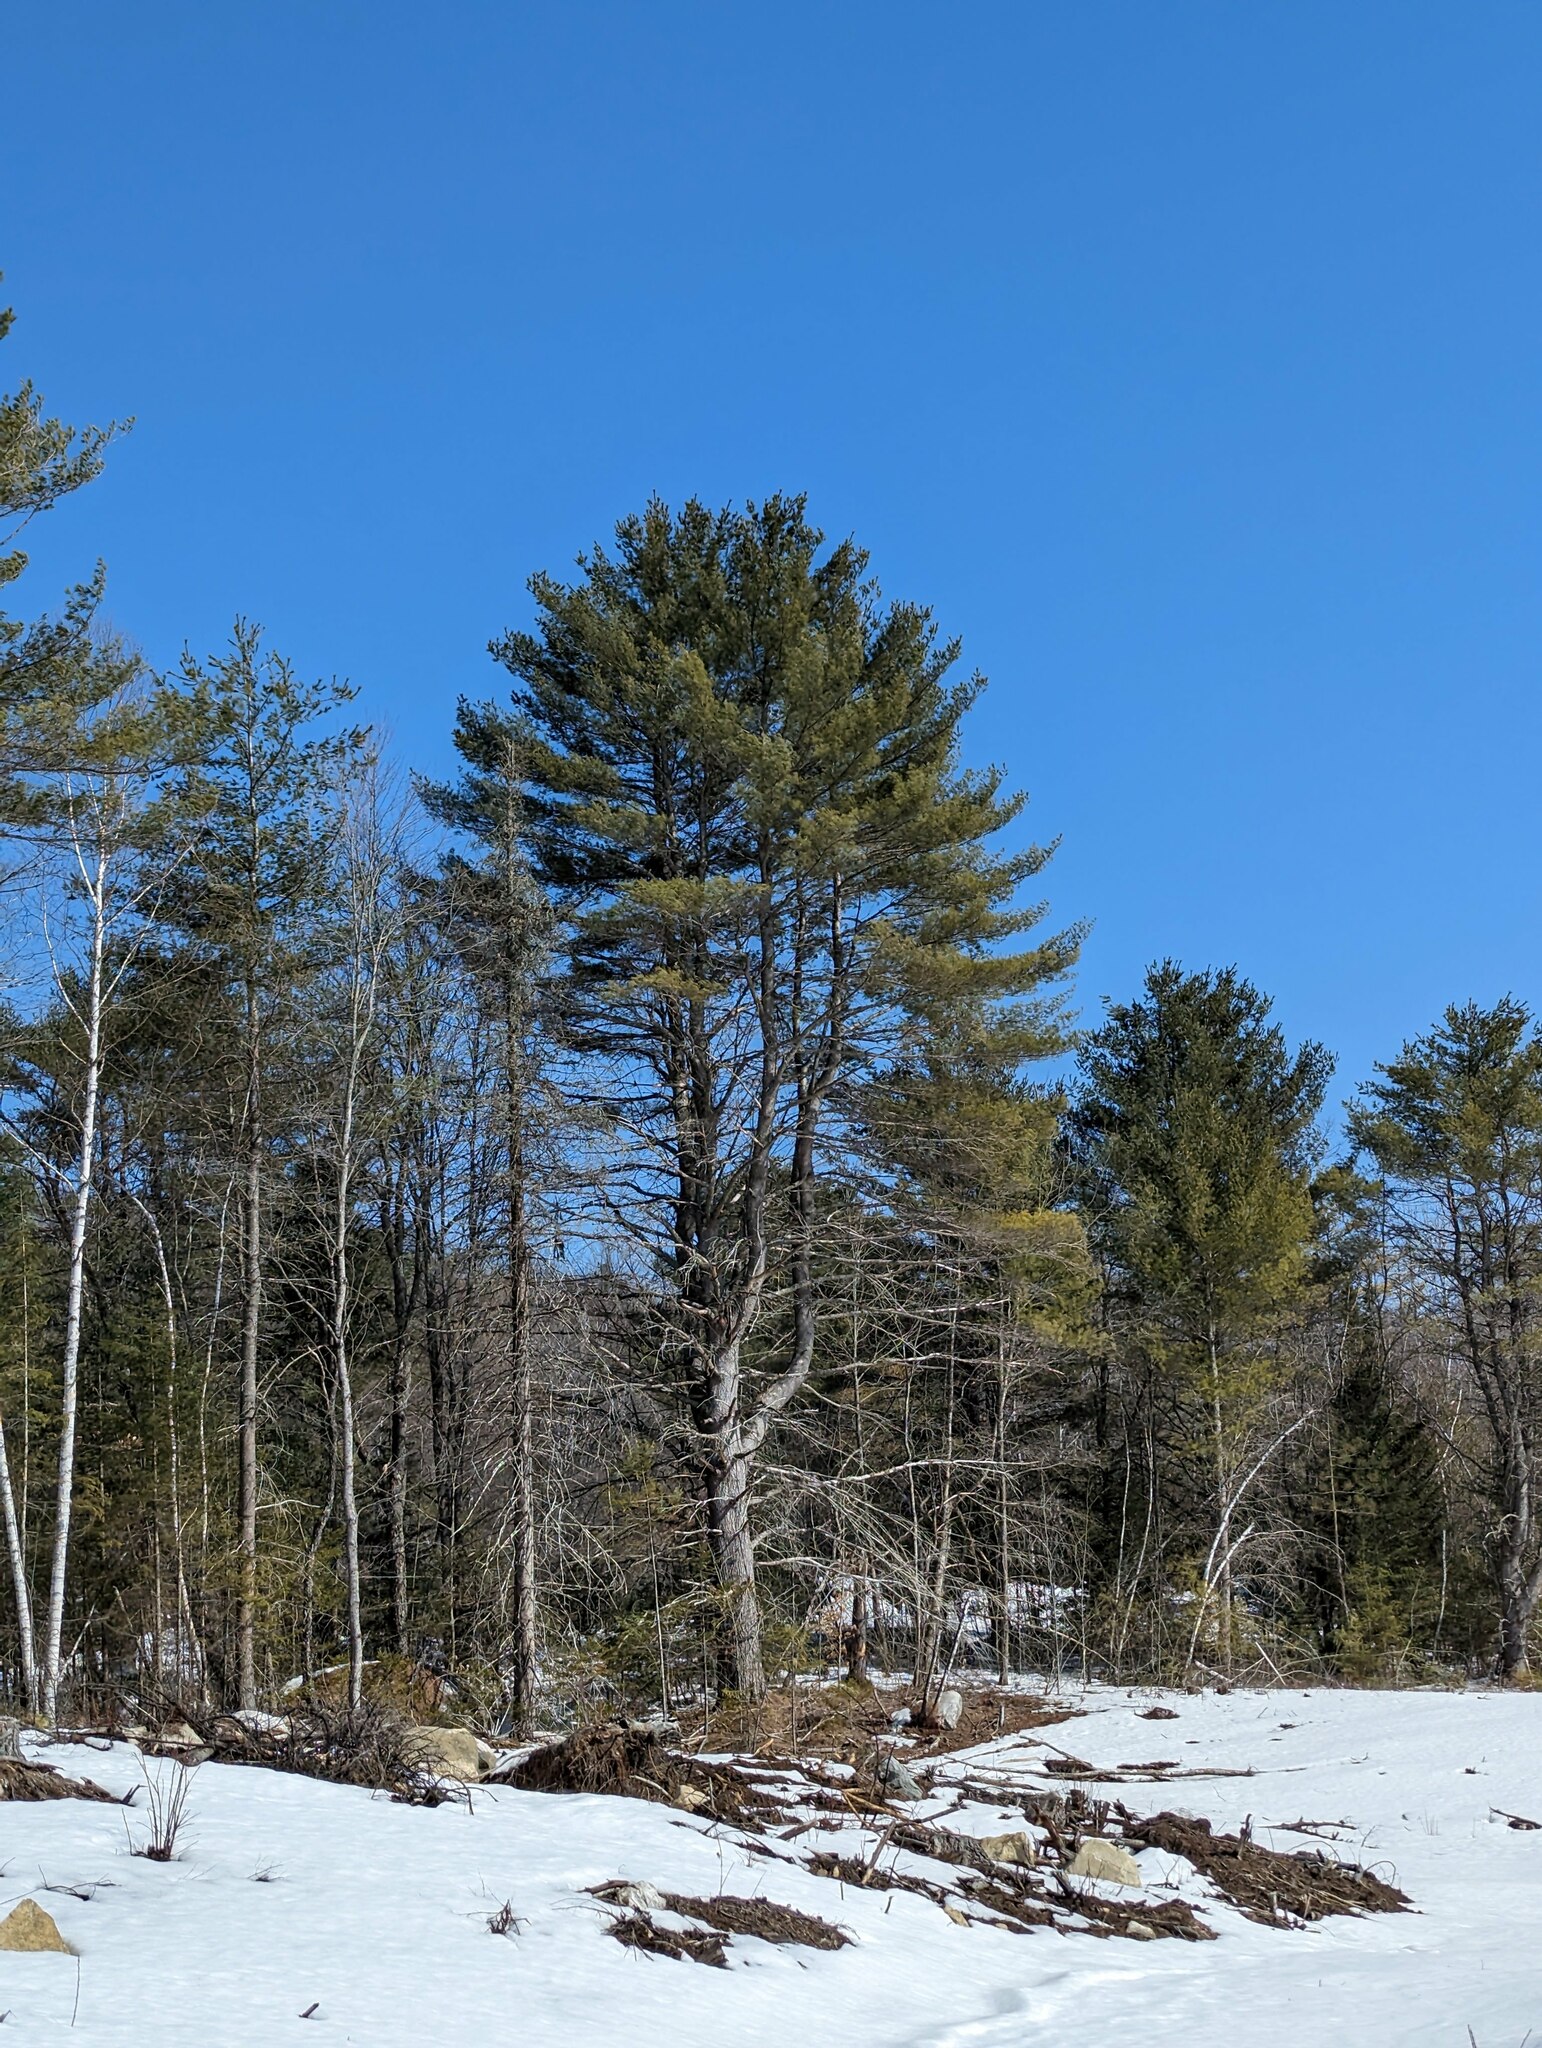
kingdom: Plantae
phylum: Tracheophyta
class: Pinopsida
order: Pinales
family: Pinaceae
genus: Pinus
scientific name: Pinus strobus
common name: Weymouth pine
